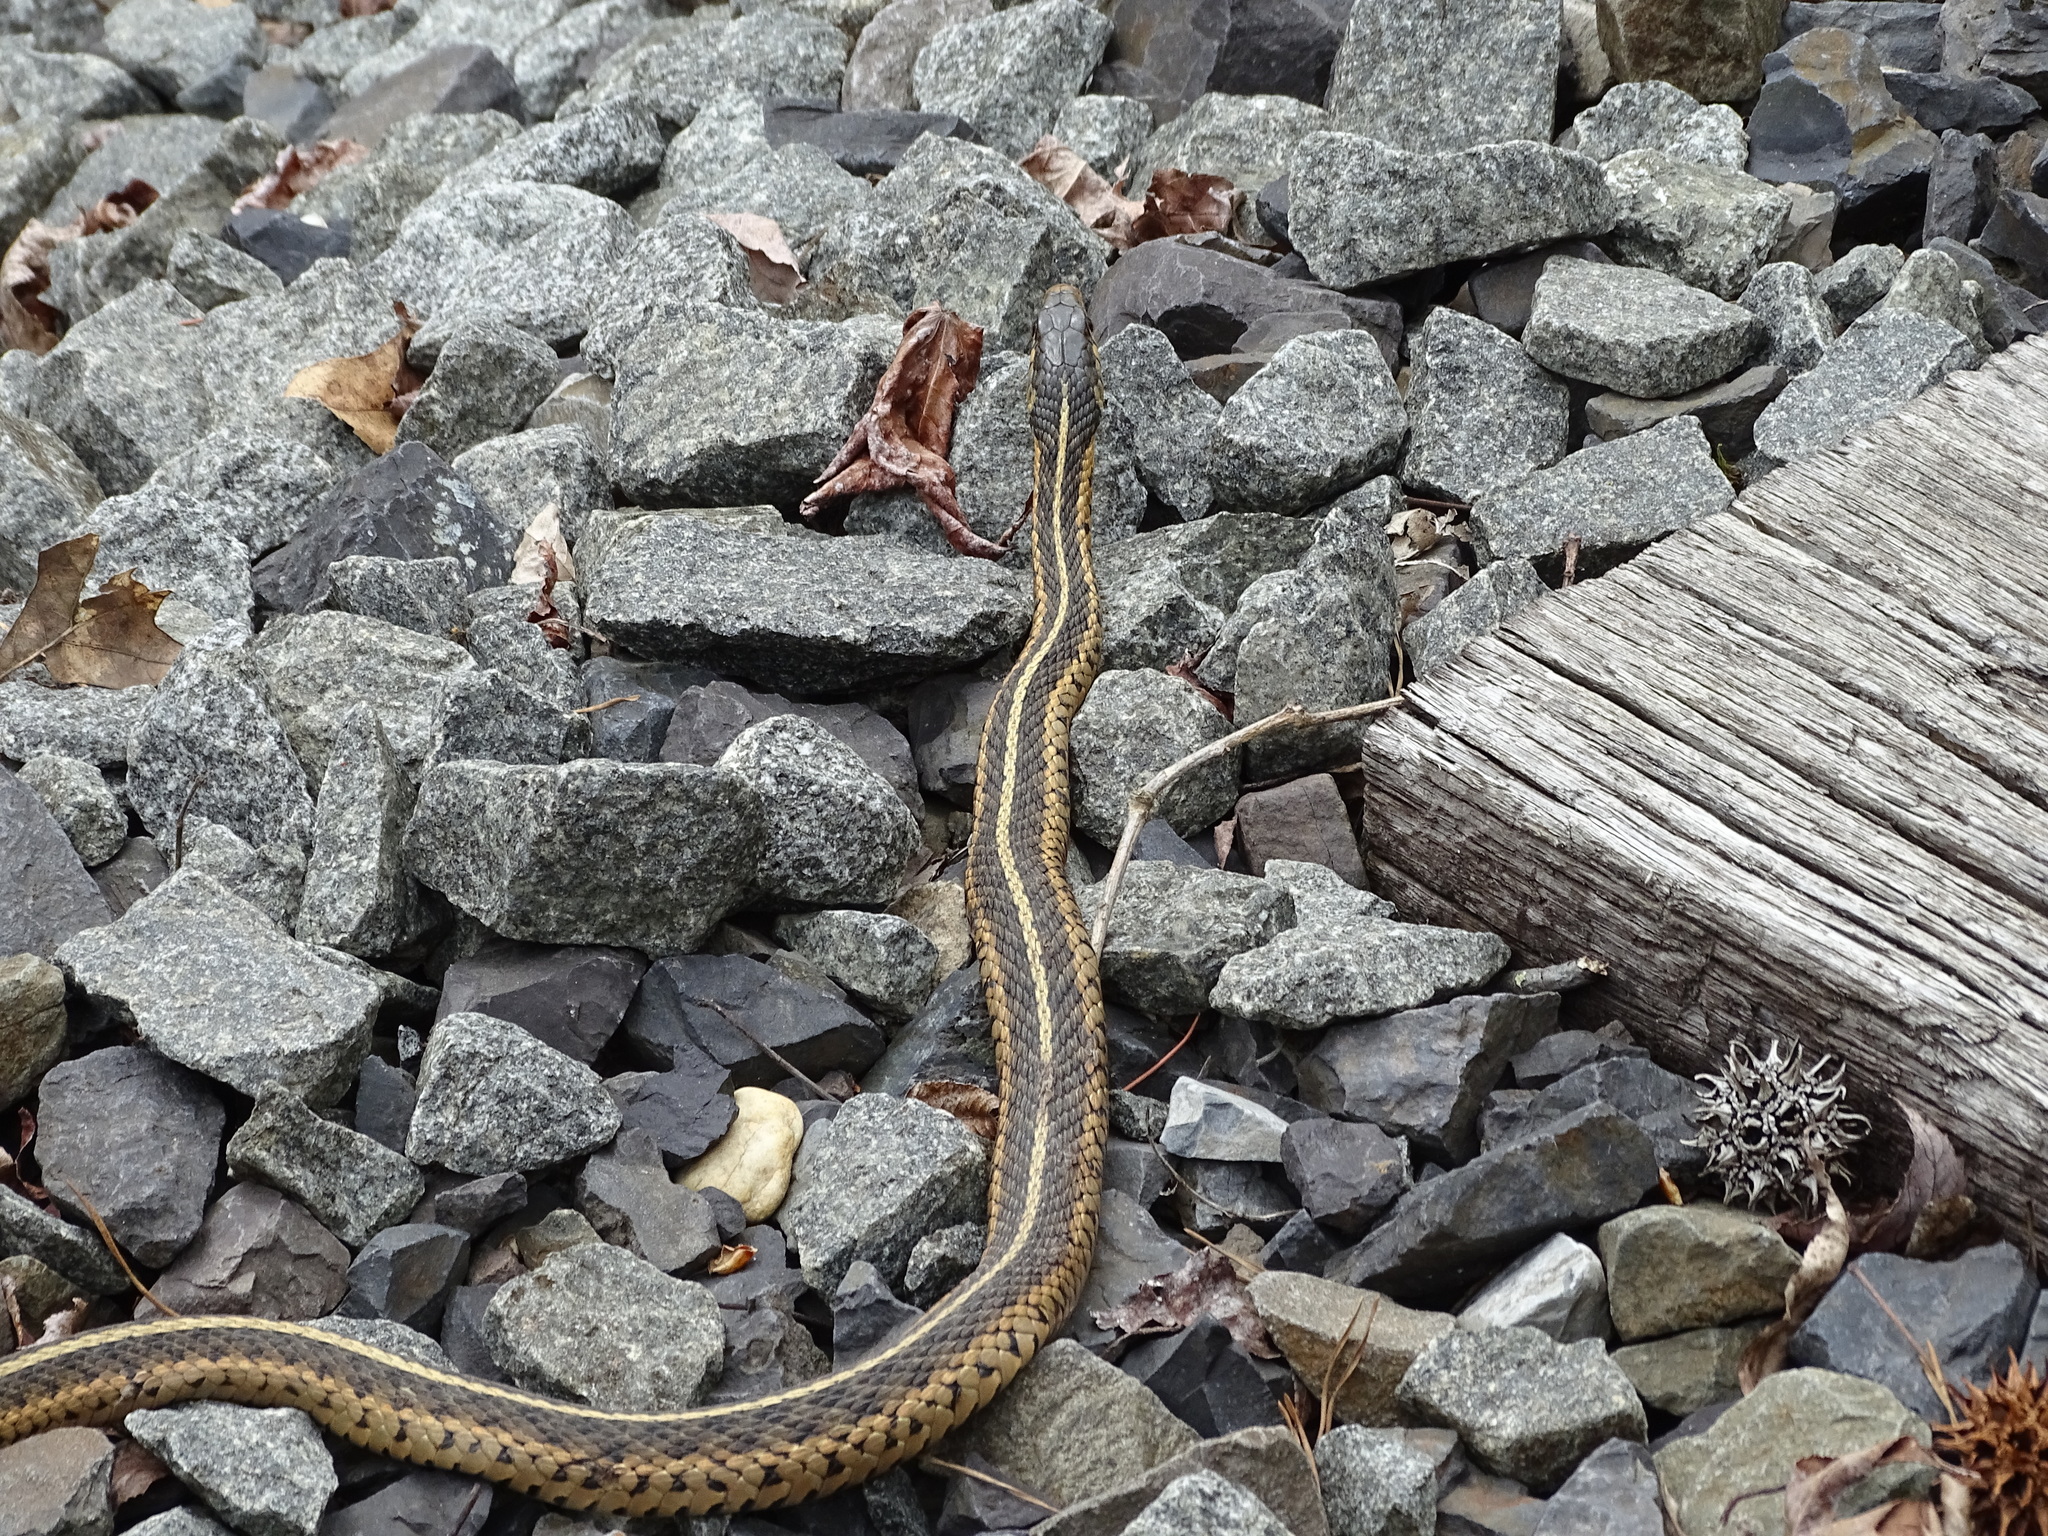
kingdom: Animalia
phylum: Chordata
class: Squamata
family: Colubridae
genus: Thamnophis
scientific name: Thamnophis sirtalis
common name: Common garter snake
